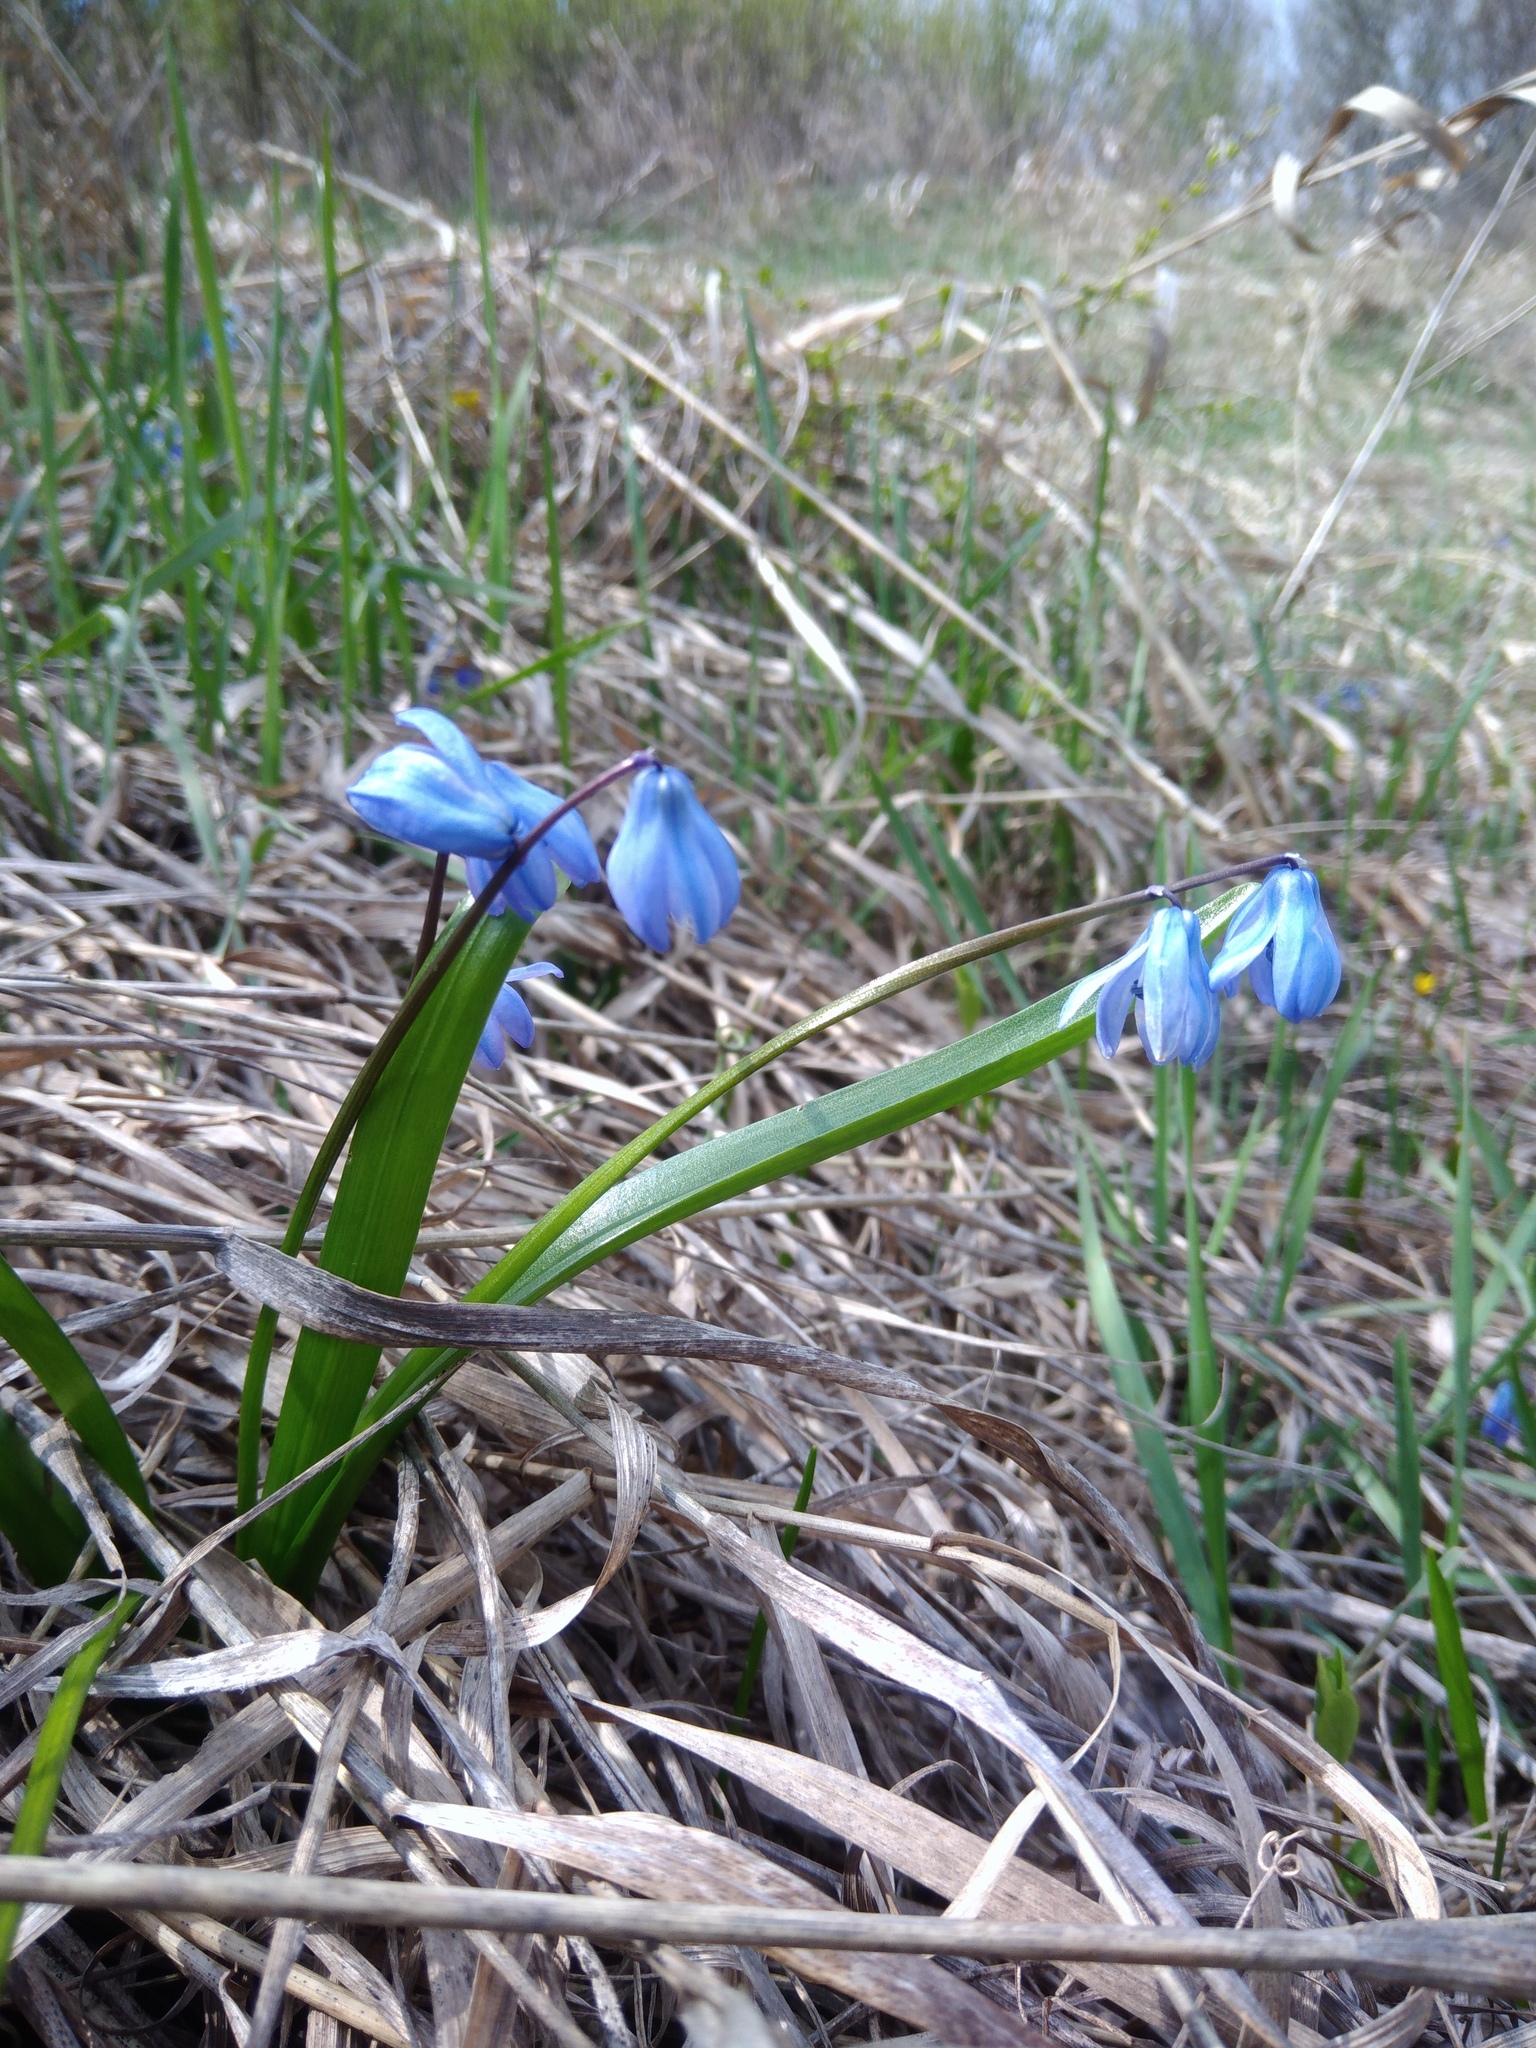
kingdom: Plantae
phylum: Tracheophyta
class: Liliopsida
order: Asparagales
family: Asparagaceae
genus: Scilla
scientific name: Scilla siberica
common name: Siberian squill
